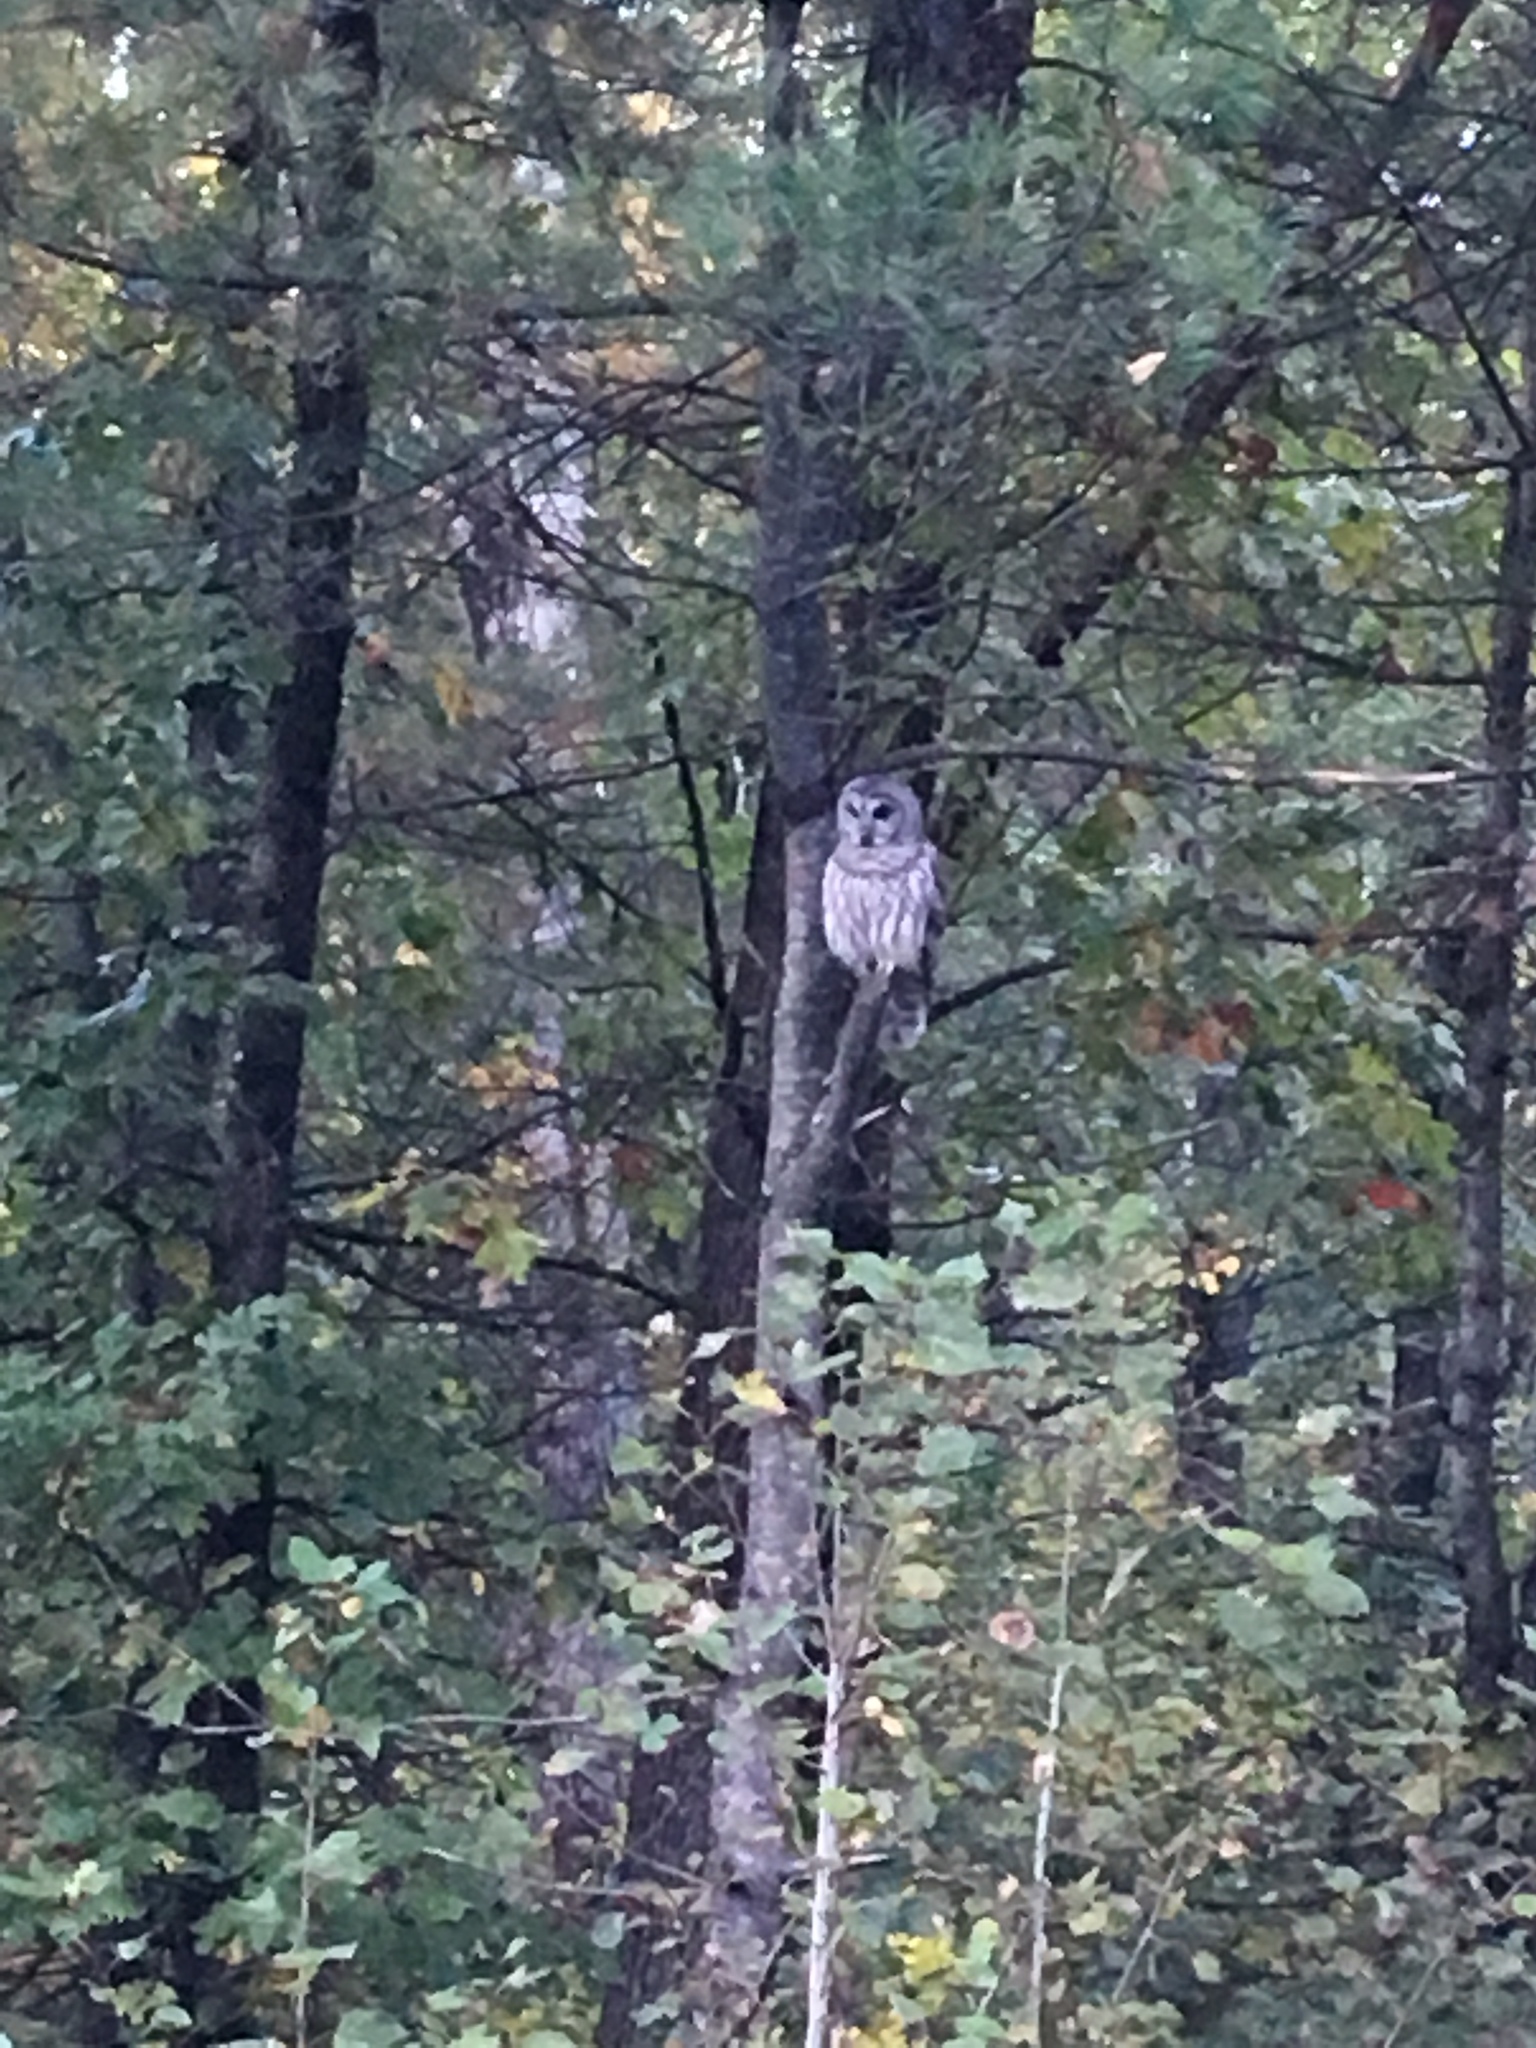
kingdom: Animalia
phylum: Chordata
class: Aves
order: Strigiformes
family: Strigidae
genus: Strix
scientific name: Strix varia
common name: Barred owl
